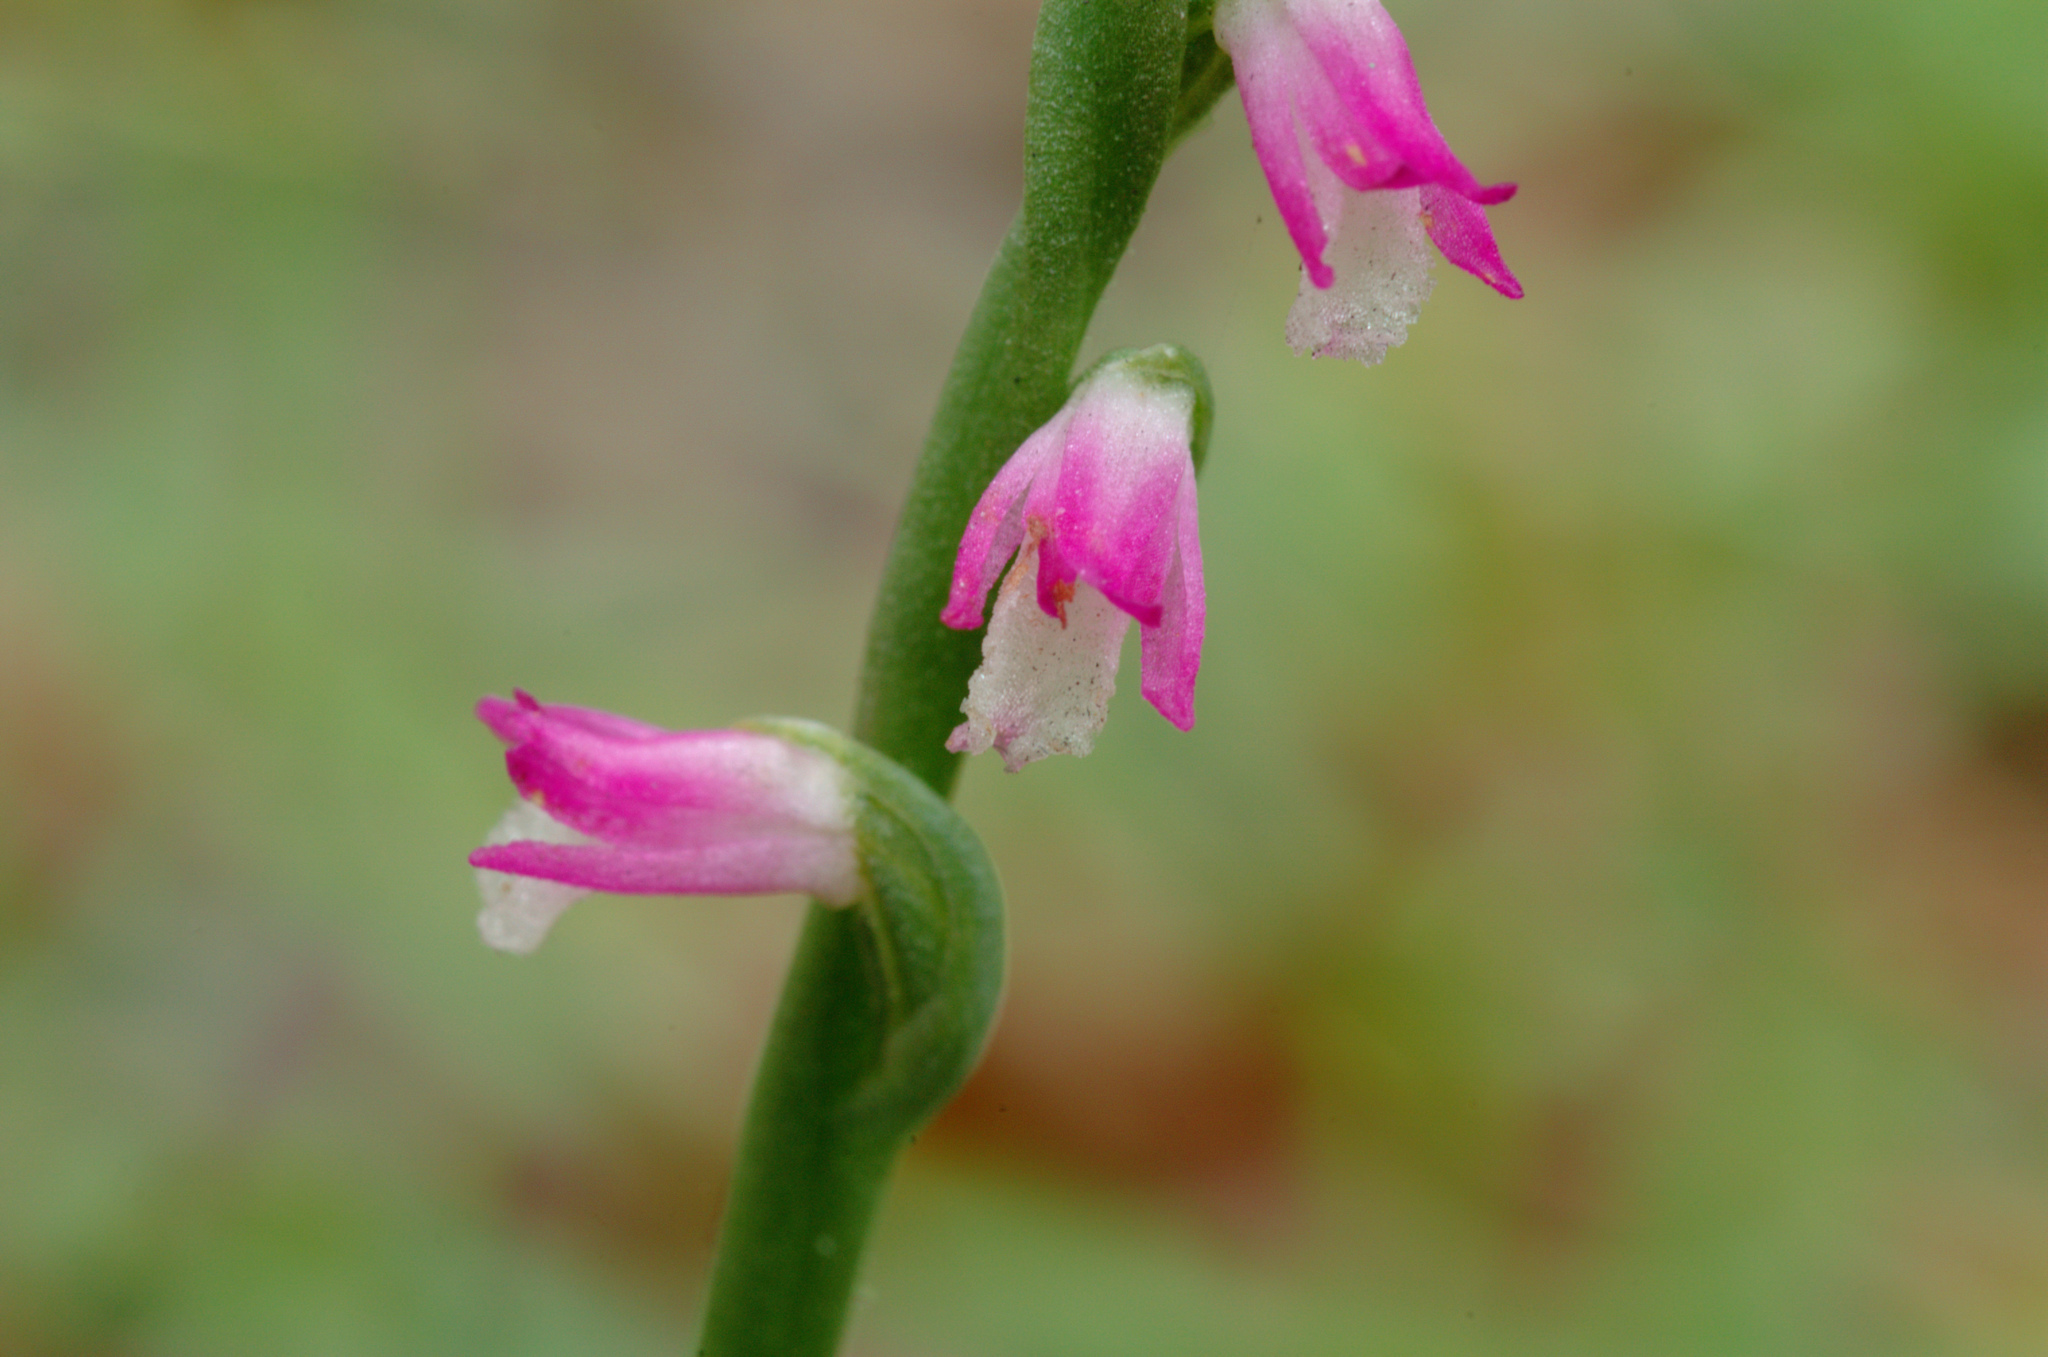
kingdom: Plantae
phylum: Tracheophyta
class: Liliopsida
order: Asparagales
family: Orchidaceae
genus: Spiranthes
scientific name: Spiranthes sinensis
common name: Chinese spiranthes
